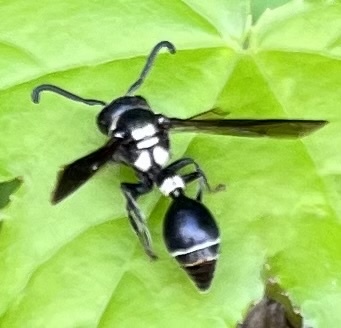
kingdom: Animalia
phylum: Arthropoda
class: Insecta
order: Hymenoptera
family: Eumenidae
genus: Zethus
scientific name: Zethus spinipes
